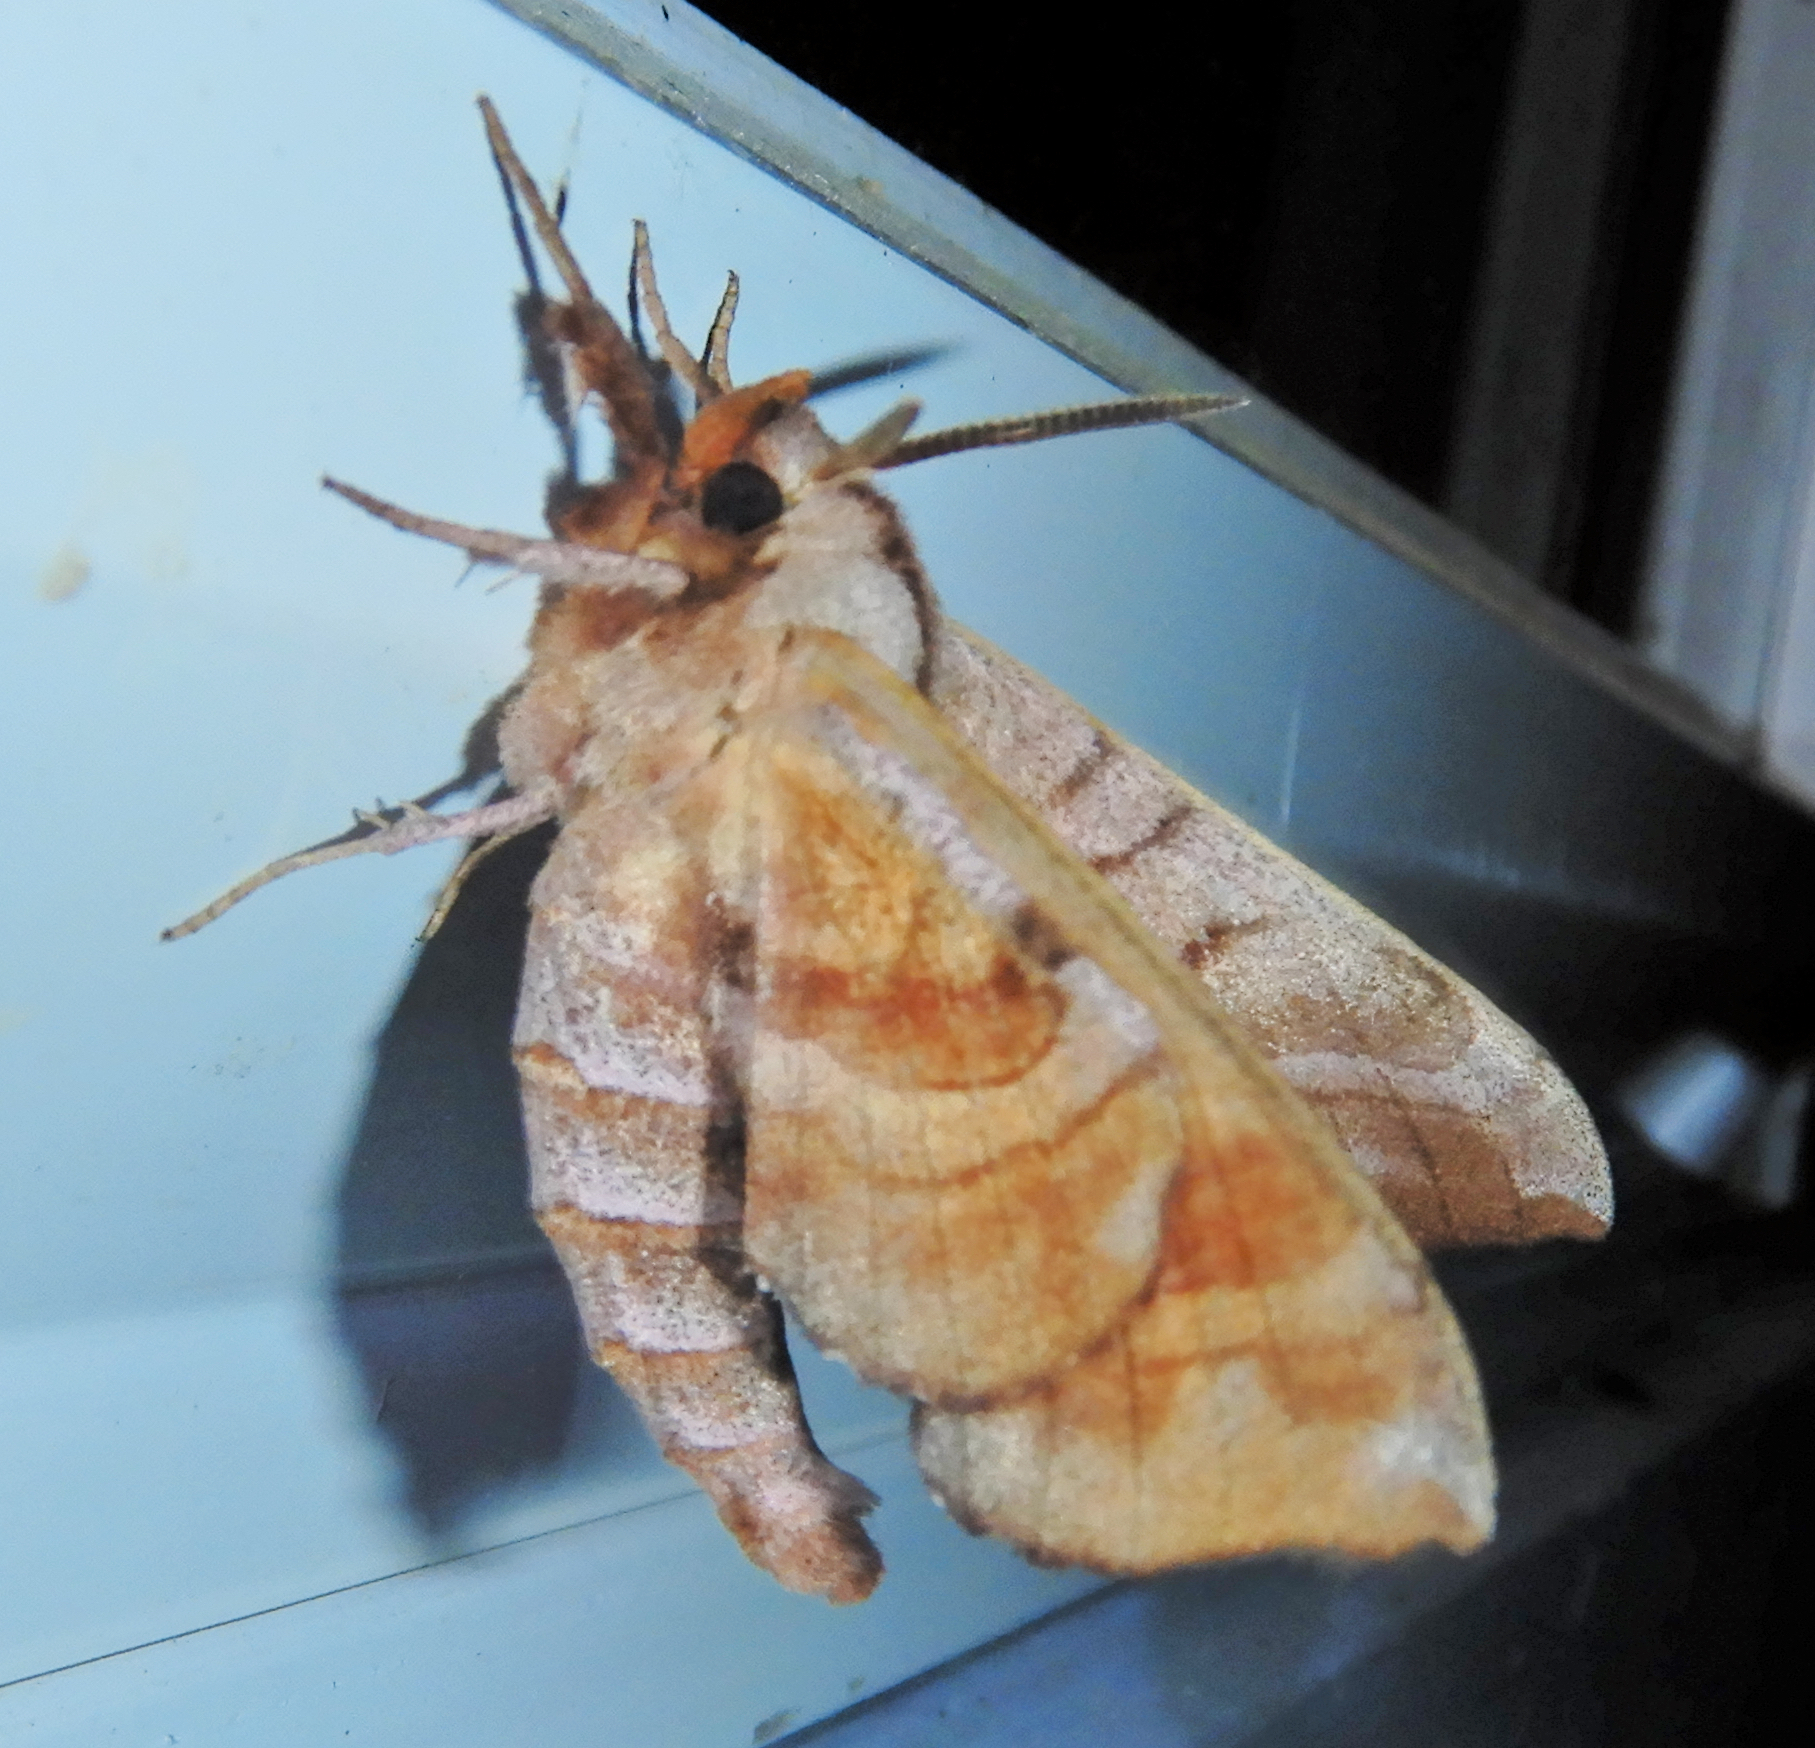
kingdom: Animalia
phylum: Arthropoda
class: Insecta
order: Lepidoptera
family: Sphingidae
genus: Amorpha
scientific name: Amorpha juglandis
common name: Walnut sphinx
